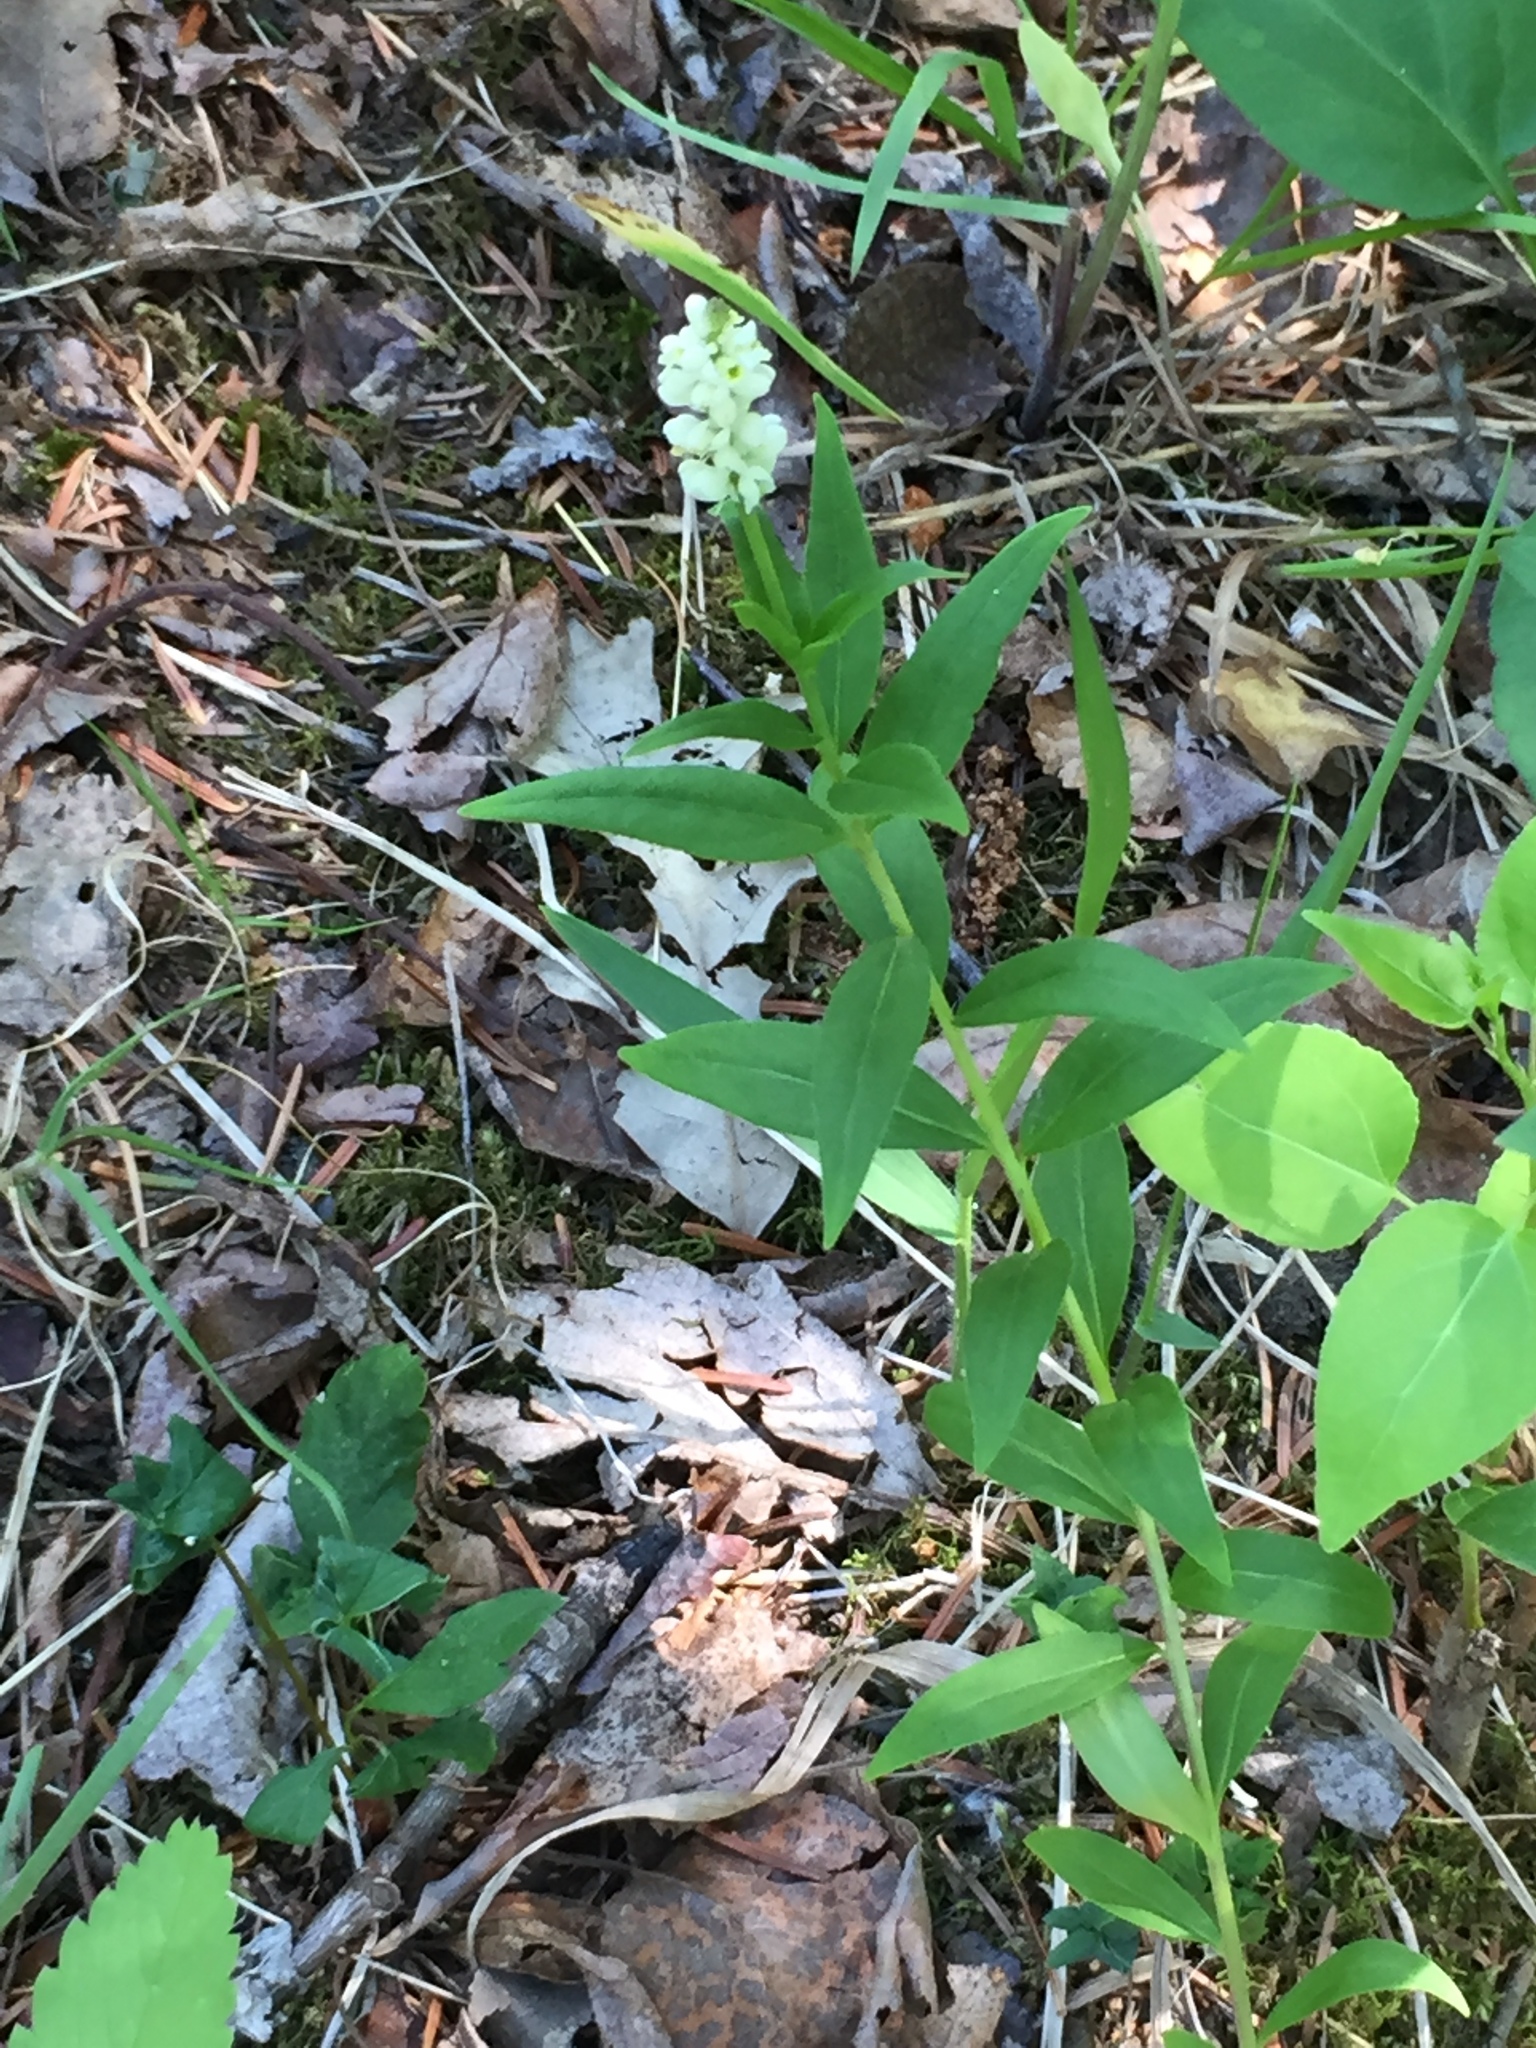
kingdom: Plantae
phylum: Tracheophyta
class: Magnoliopsida
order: Fabales
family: Polygalaceae
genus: Polygala
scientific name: Polygala senega
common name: Seneca snakeroot
